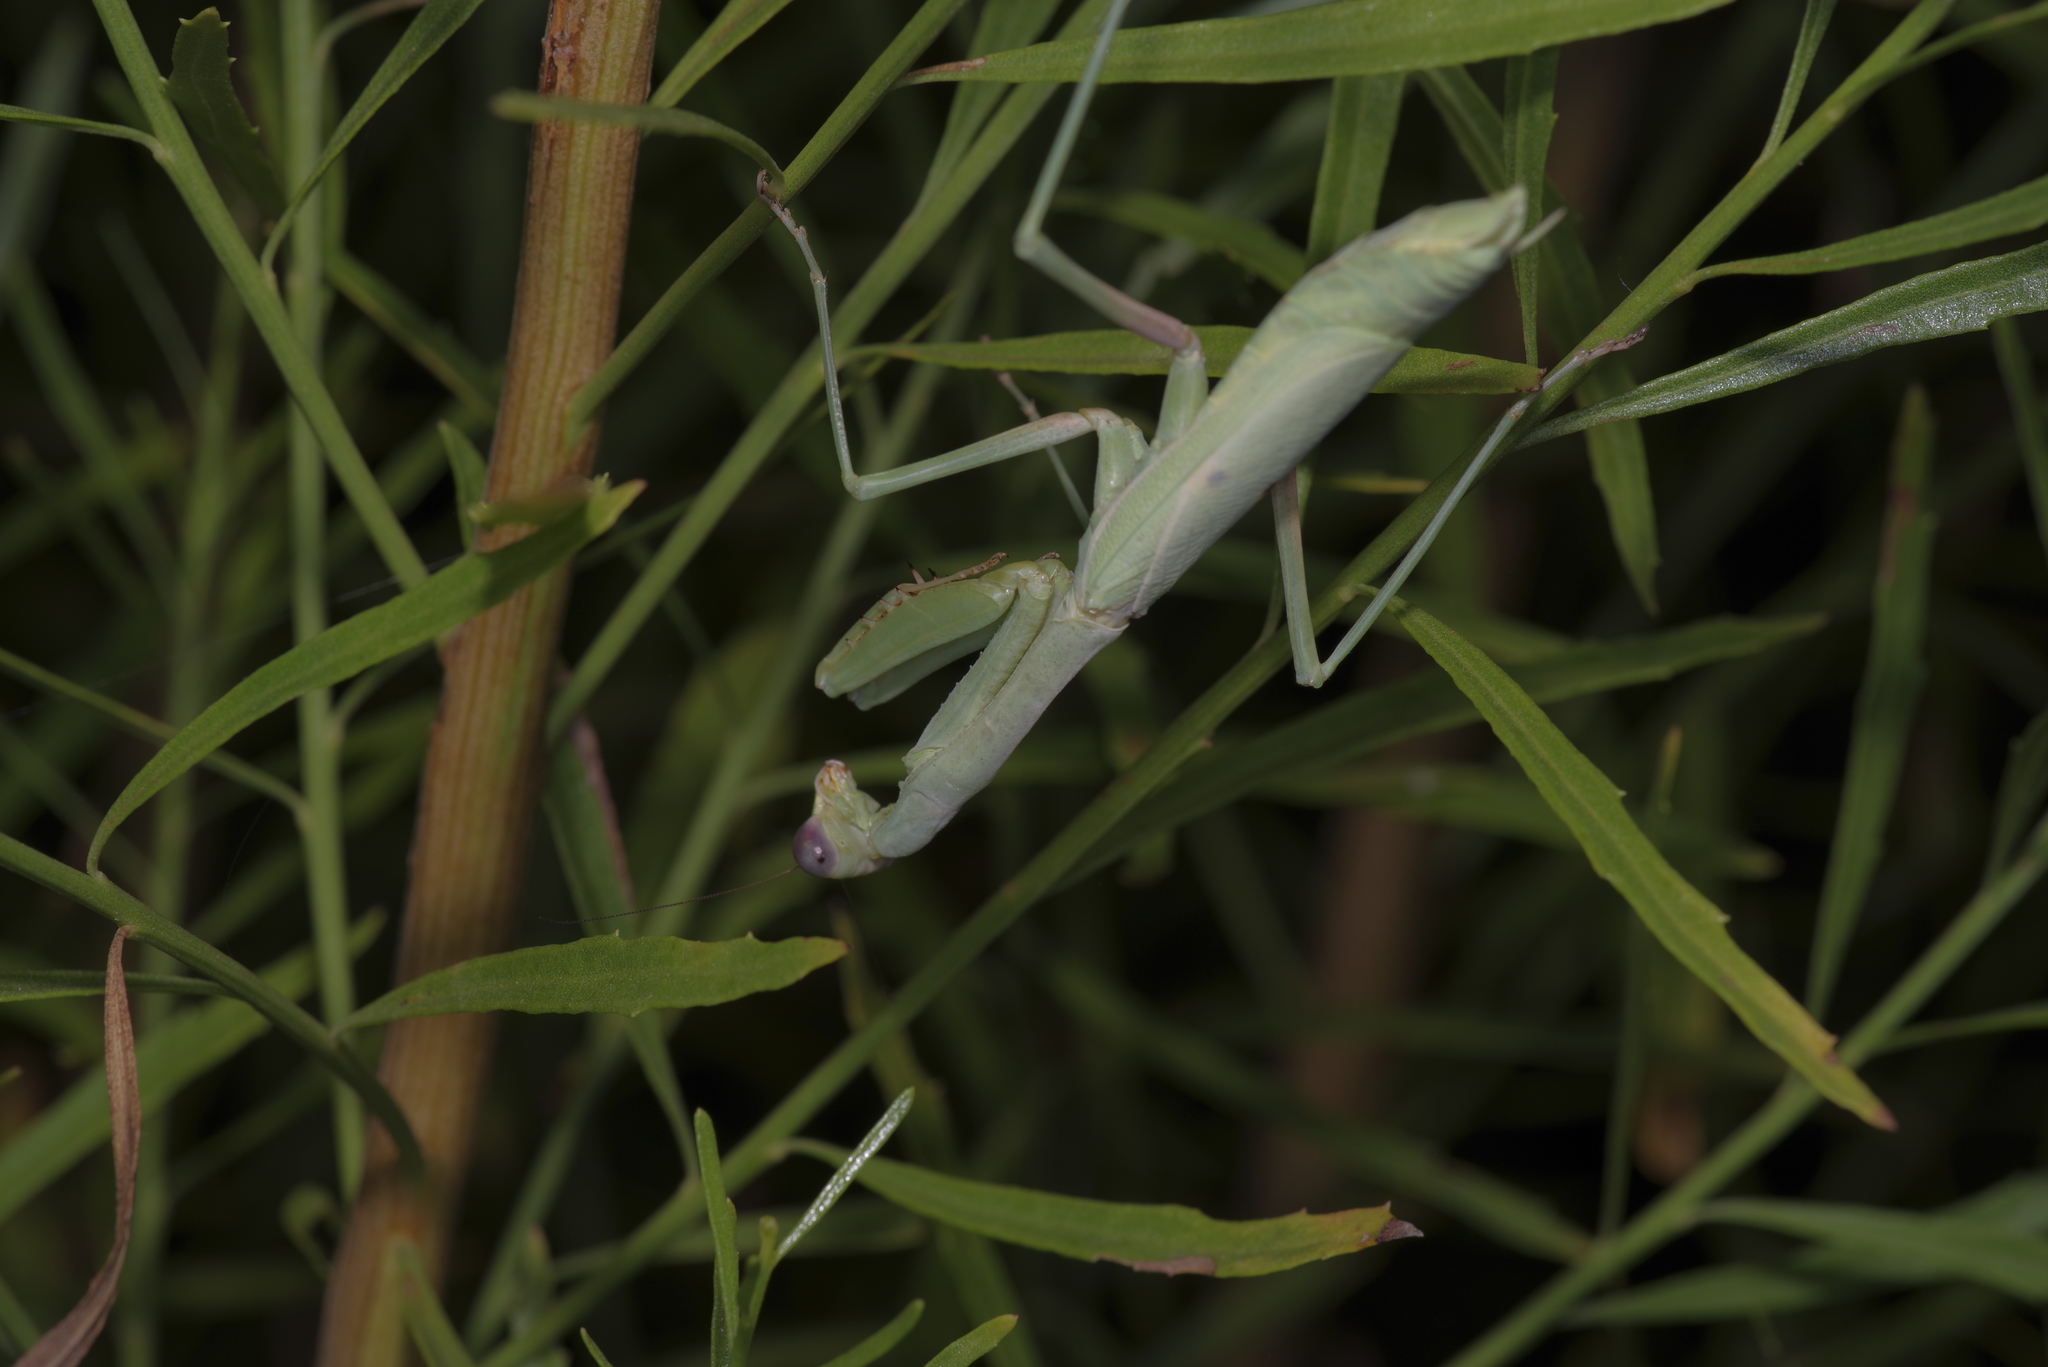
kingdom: Animalia
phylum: Arthropoda
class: Insecta
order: Mantodea
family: Mantidae
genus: Stagmomantis
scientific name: Stagmomantis carolina
